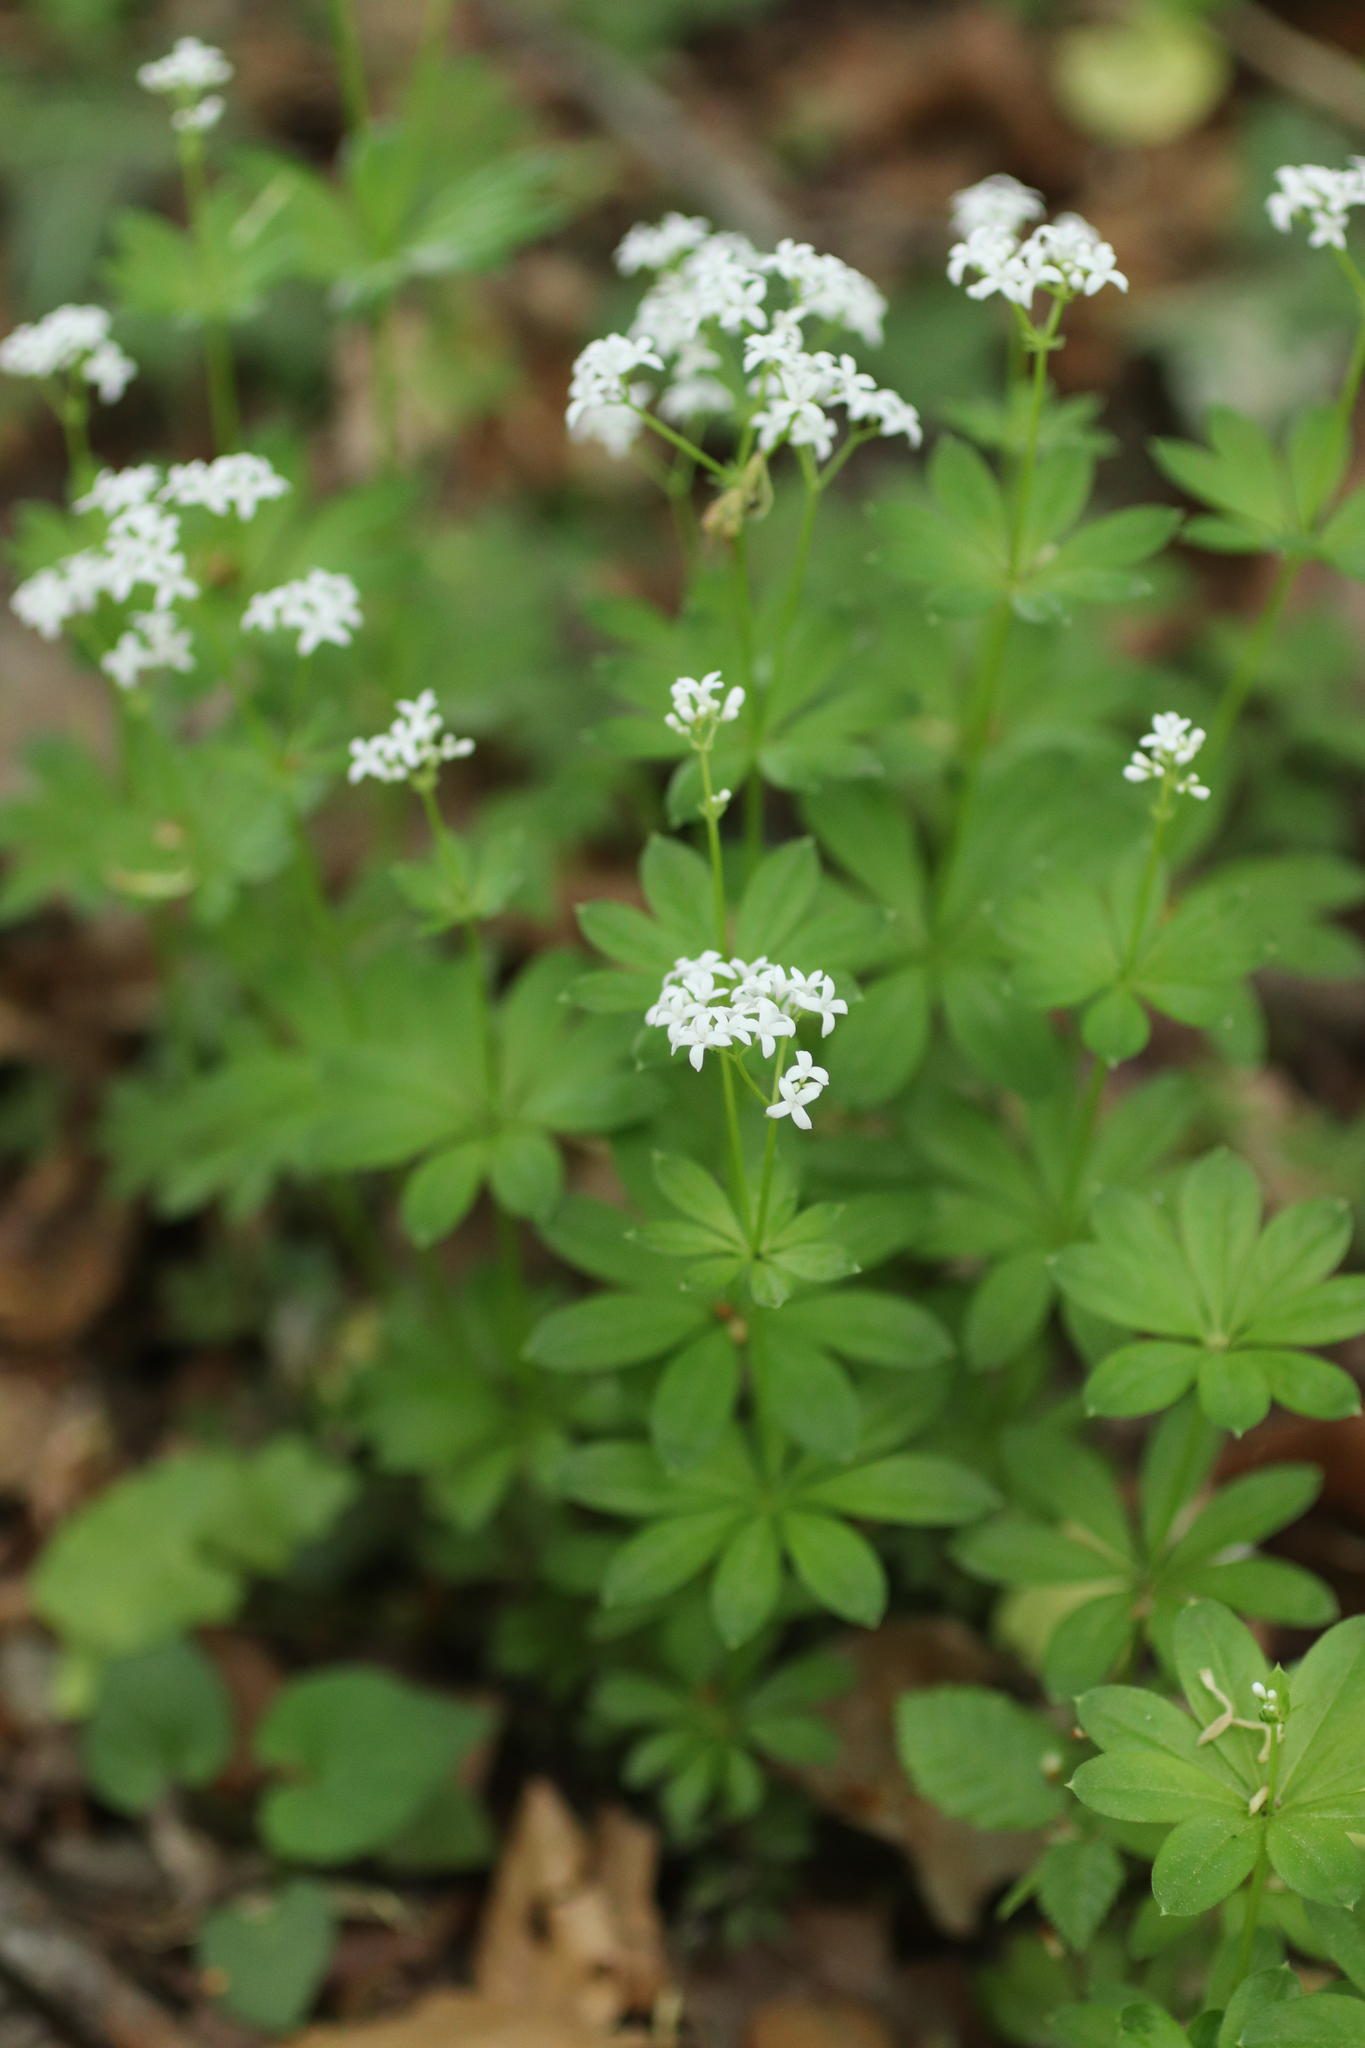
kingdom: Plantae
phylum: Tracheophyta
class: Magnoliopsida
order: Gentianales
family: Rubiaceae
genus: Galium
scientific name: Galium odoratum
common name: Sweet woodruff
